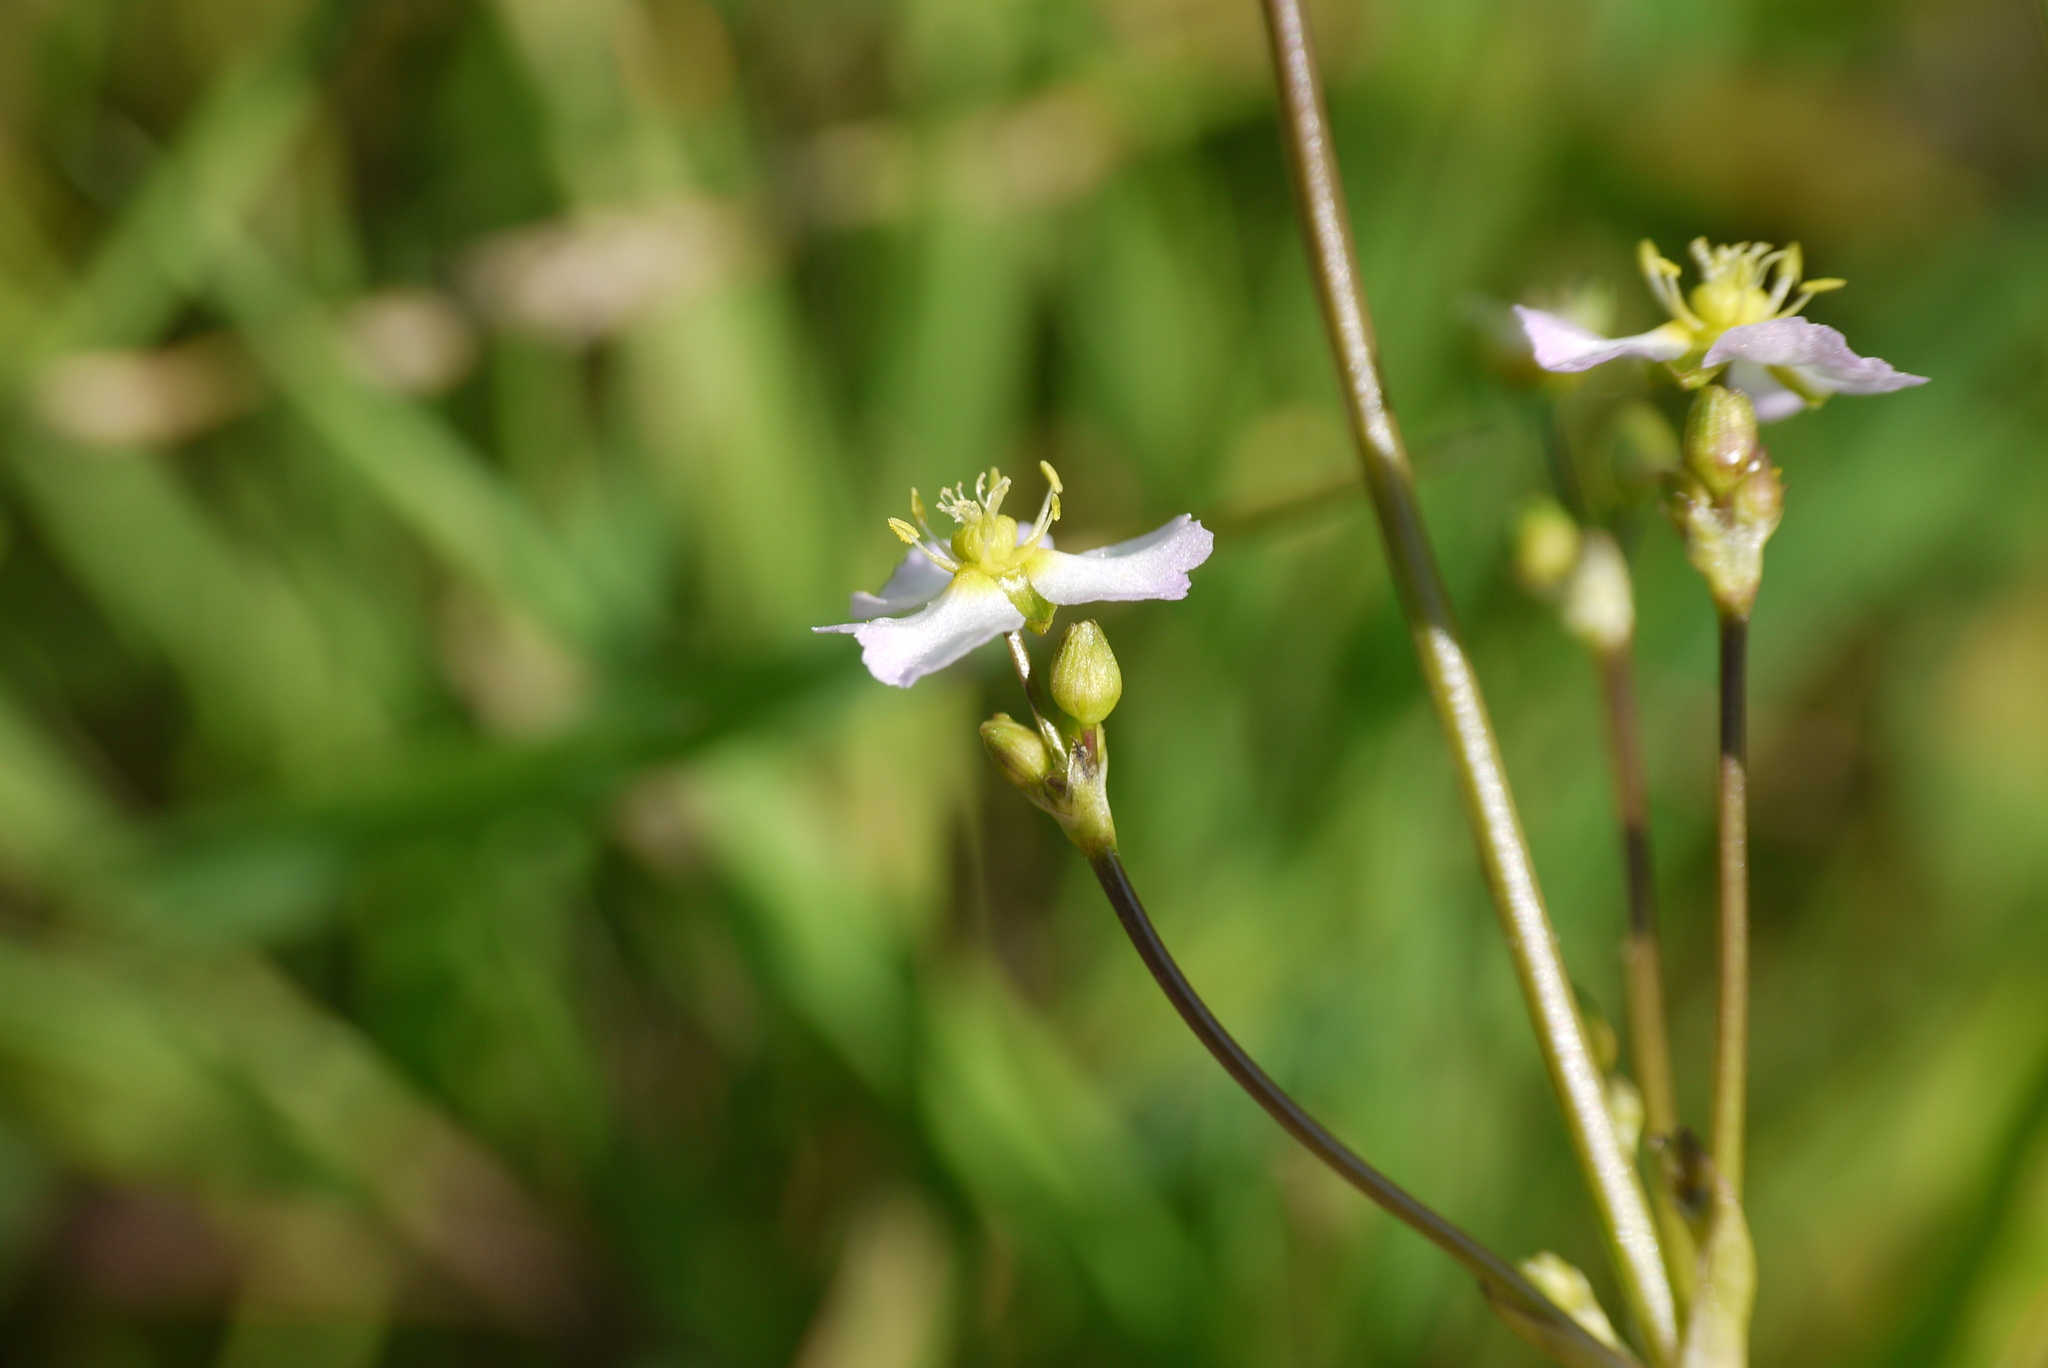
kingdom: Plantae
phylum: Tracheophyta
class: Liliopsida
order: Alismatales
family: Alismataceae
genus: Alisma
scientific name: Alisma plantago-aquatica
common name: Water-plantain
